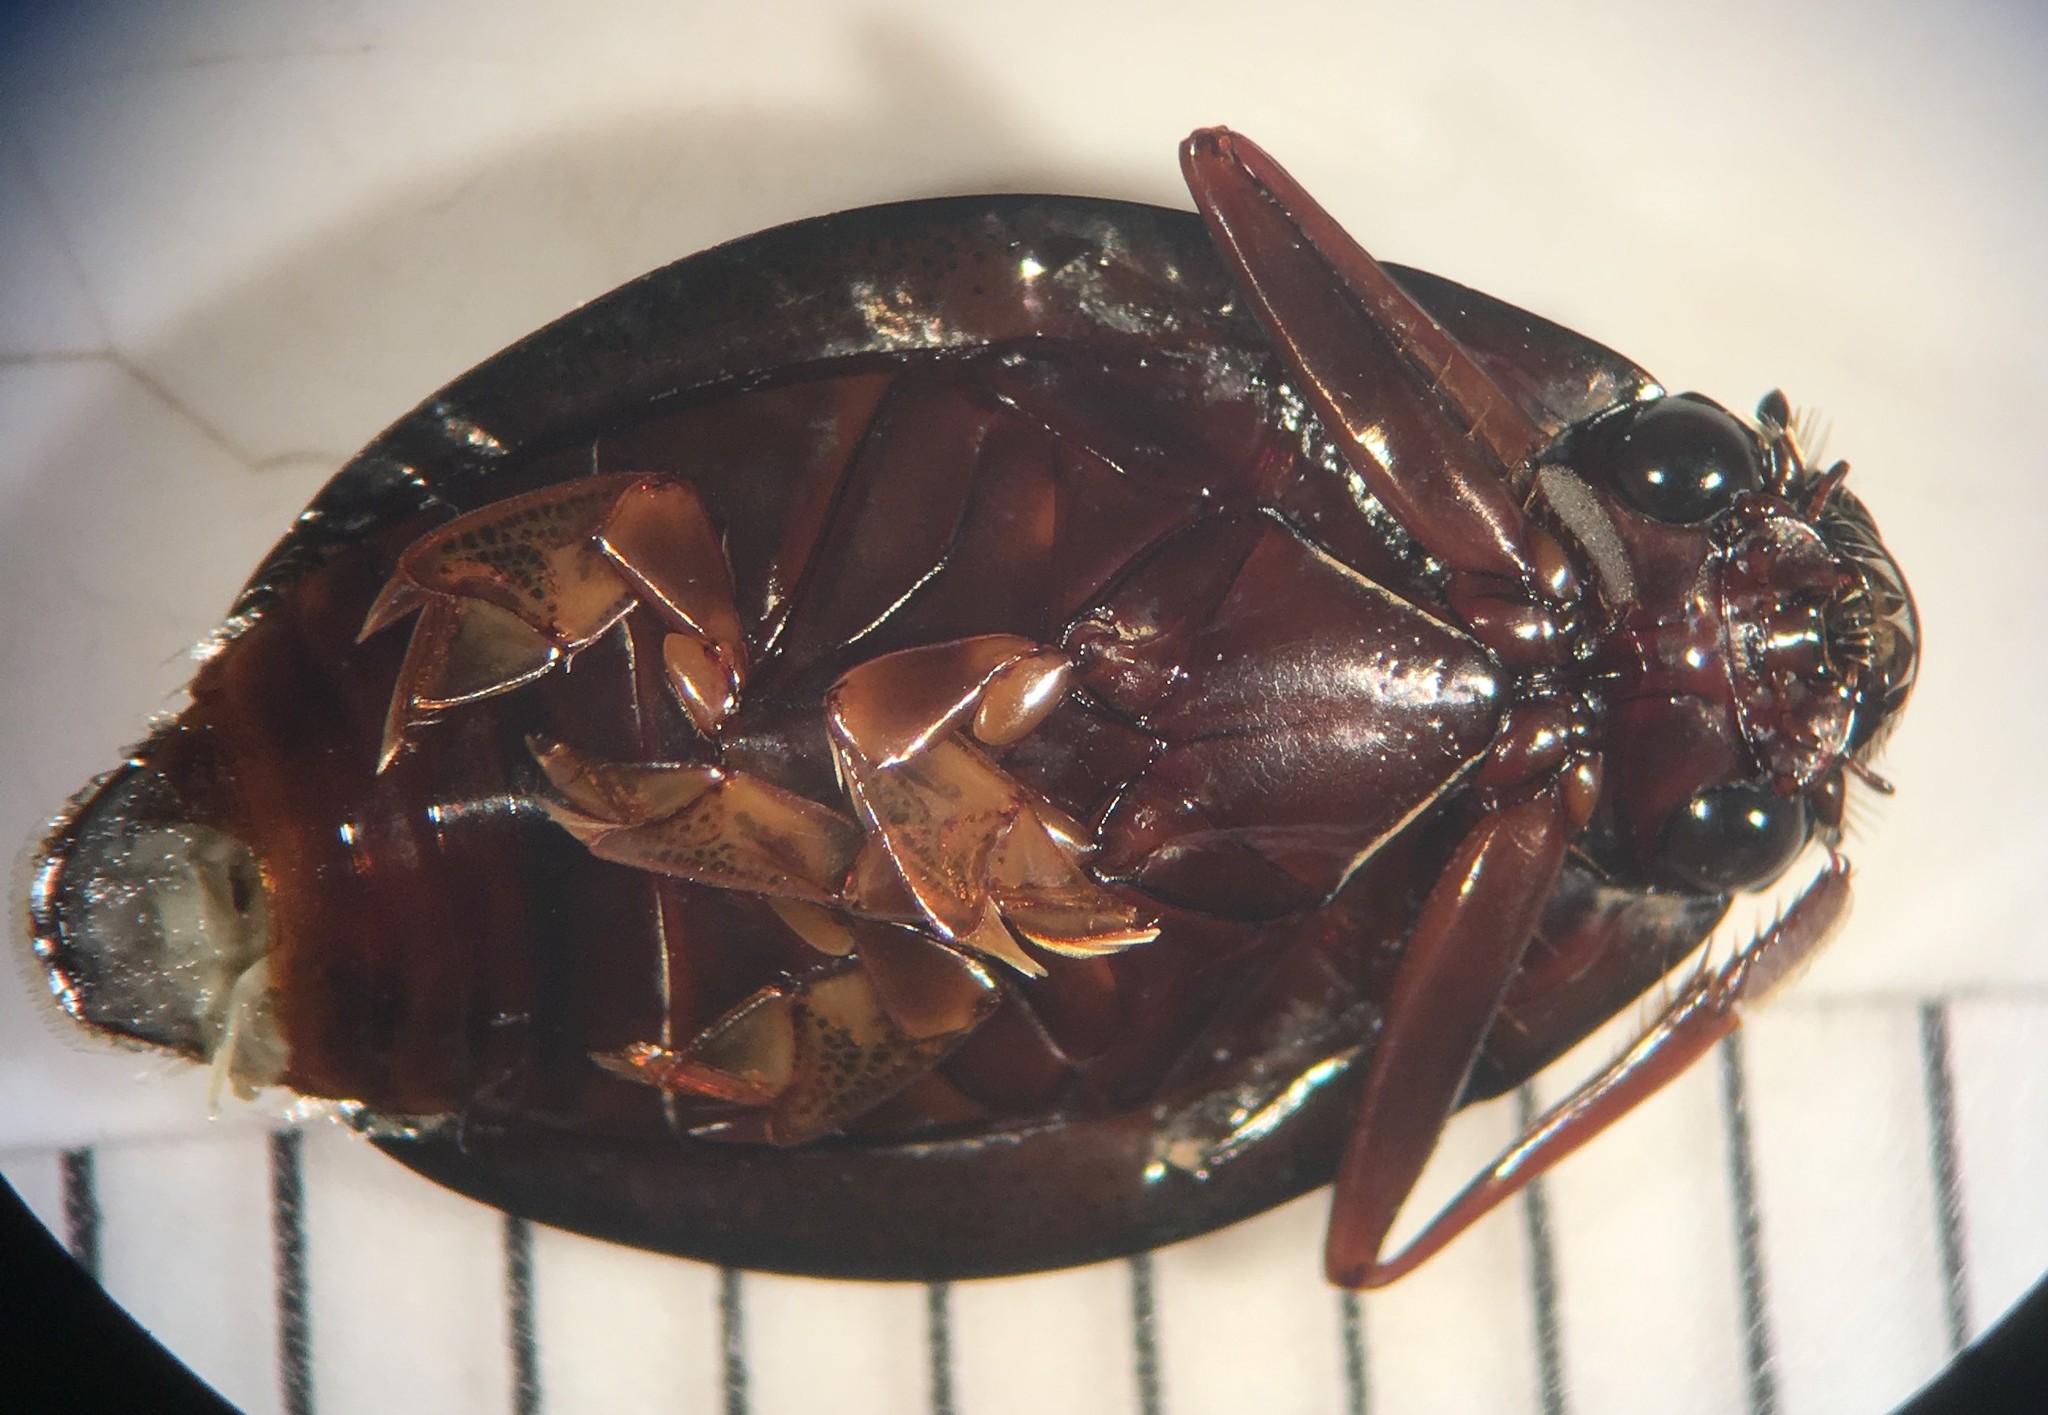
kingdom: Animalia
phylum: Arthropoda
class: Insecta
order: Coleoptera
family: Gyrinidae
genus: Dineutus
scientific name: Dineutus ciliatus
